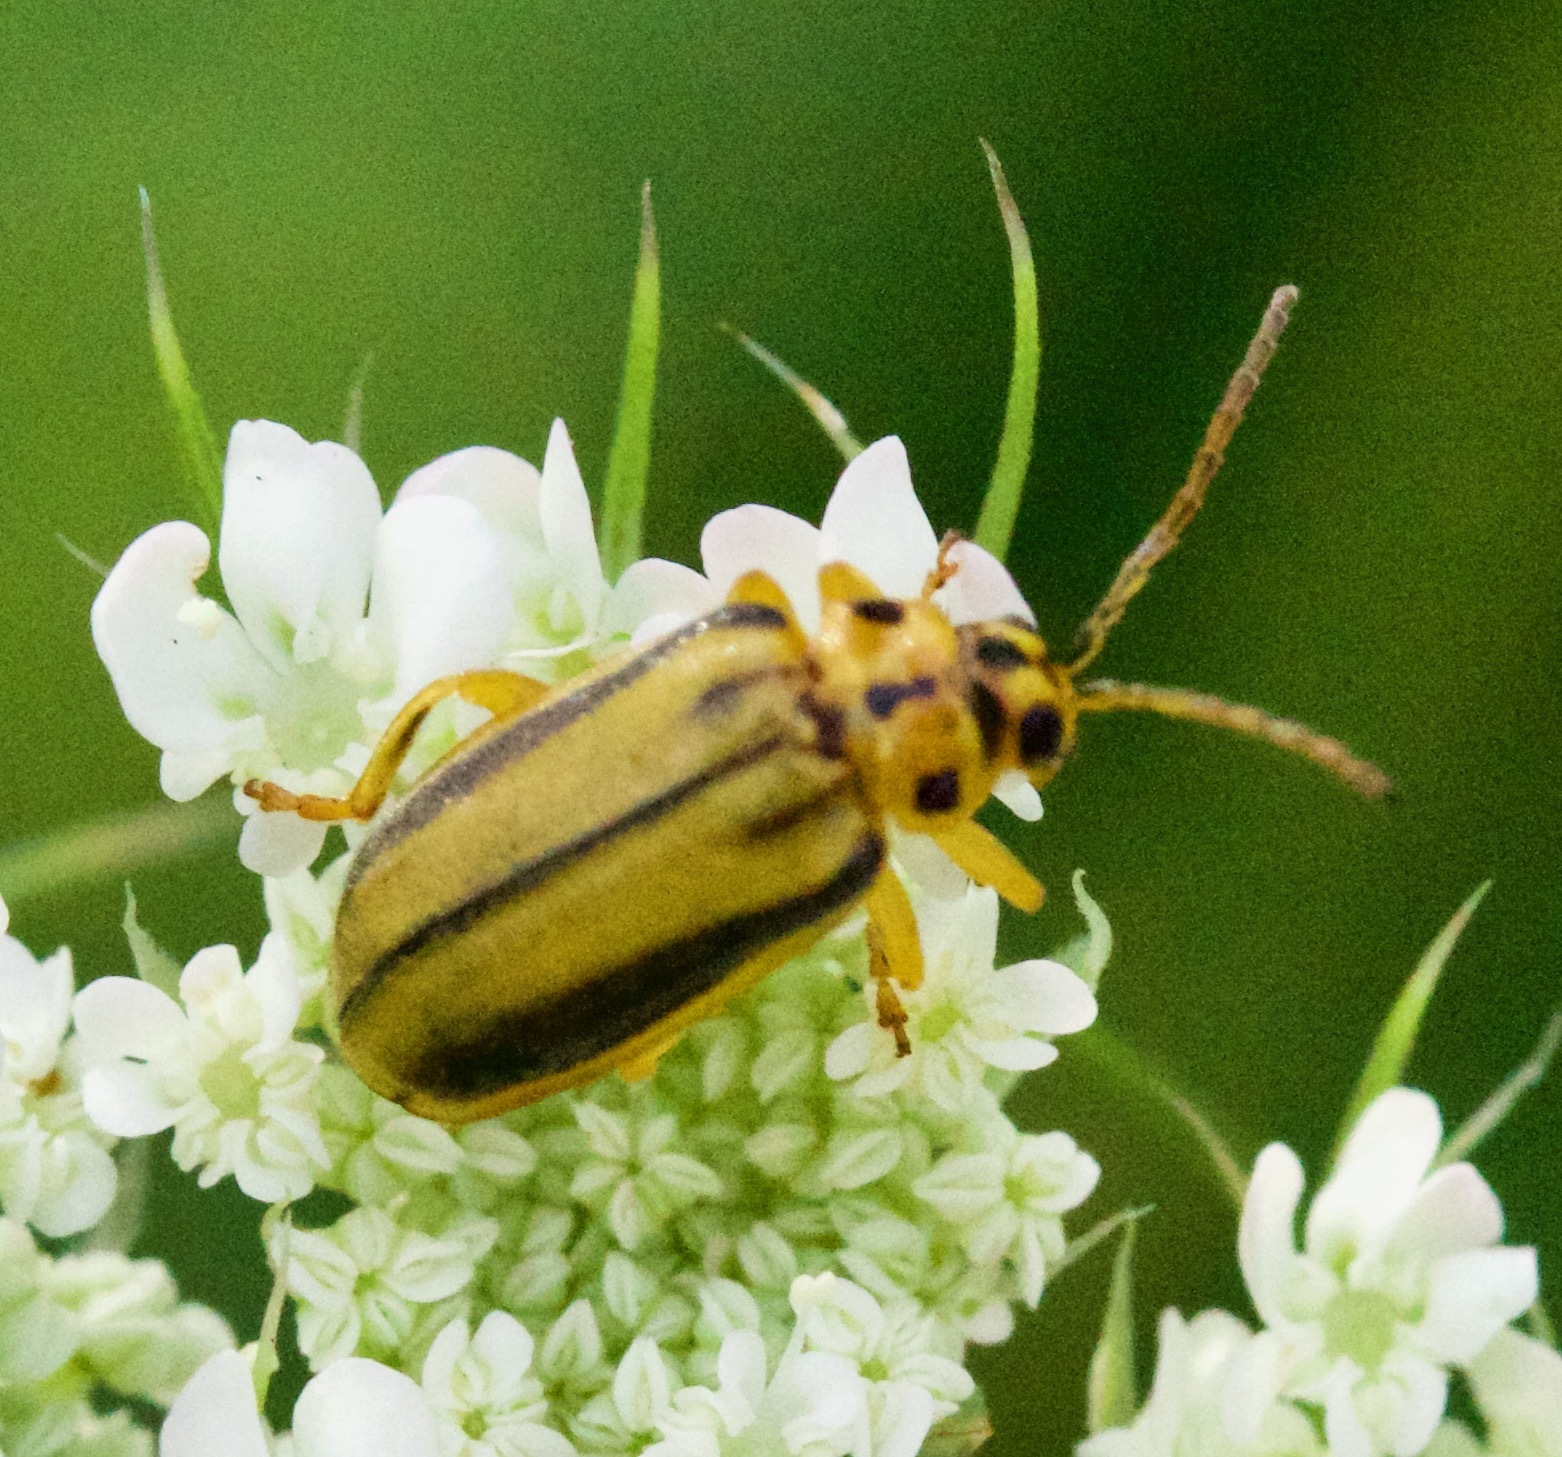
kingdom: Animalia
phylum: Arthropoda
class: Insecta
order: Coleoptera
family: Chrysomelidae
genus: Xanthogaleruca
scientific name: Xanthogaleruca luteola
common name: Elm leaf beetle
